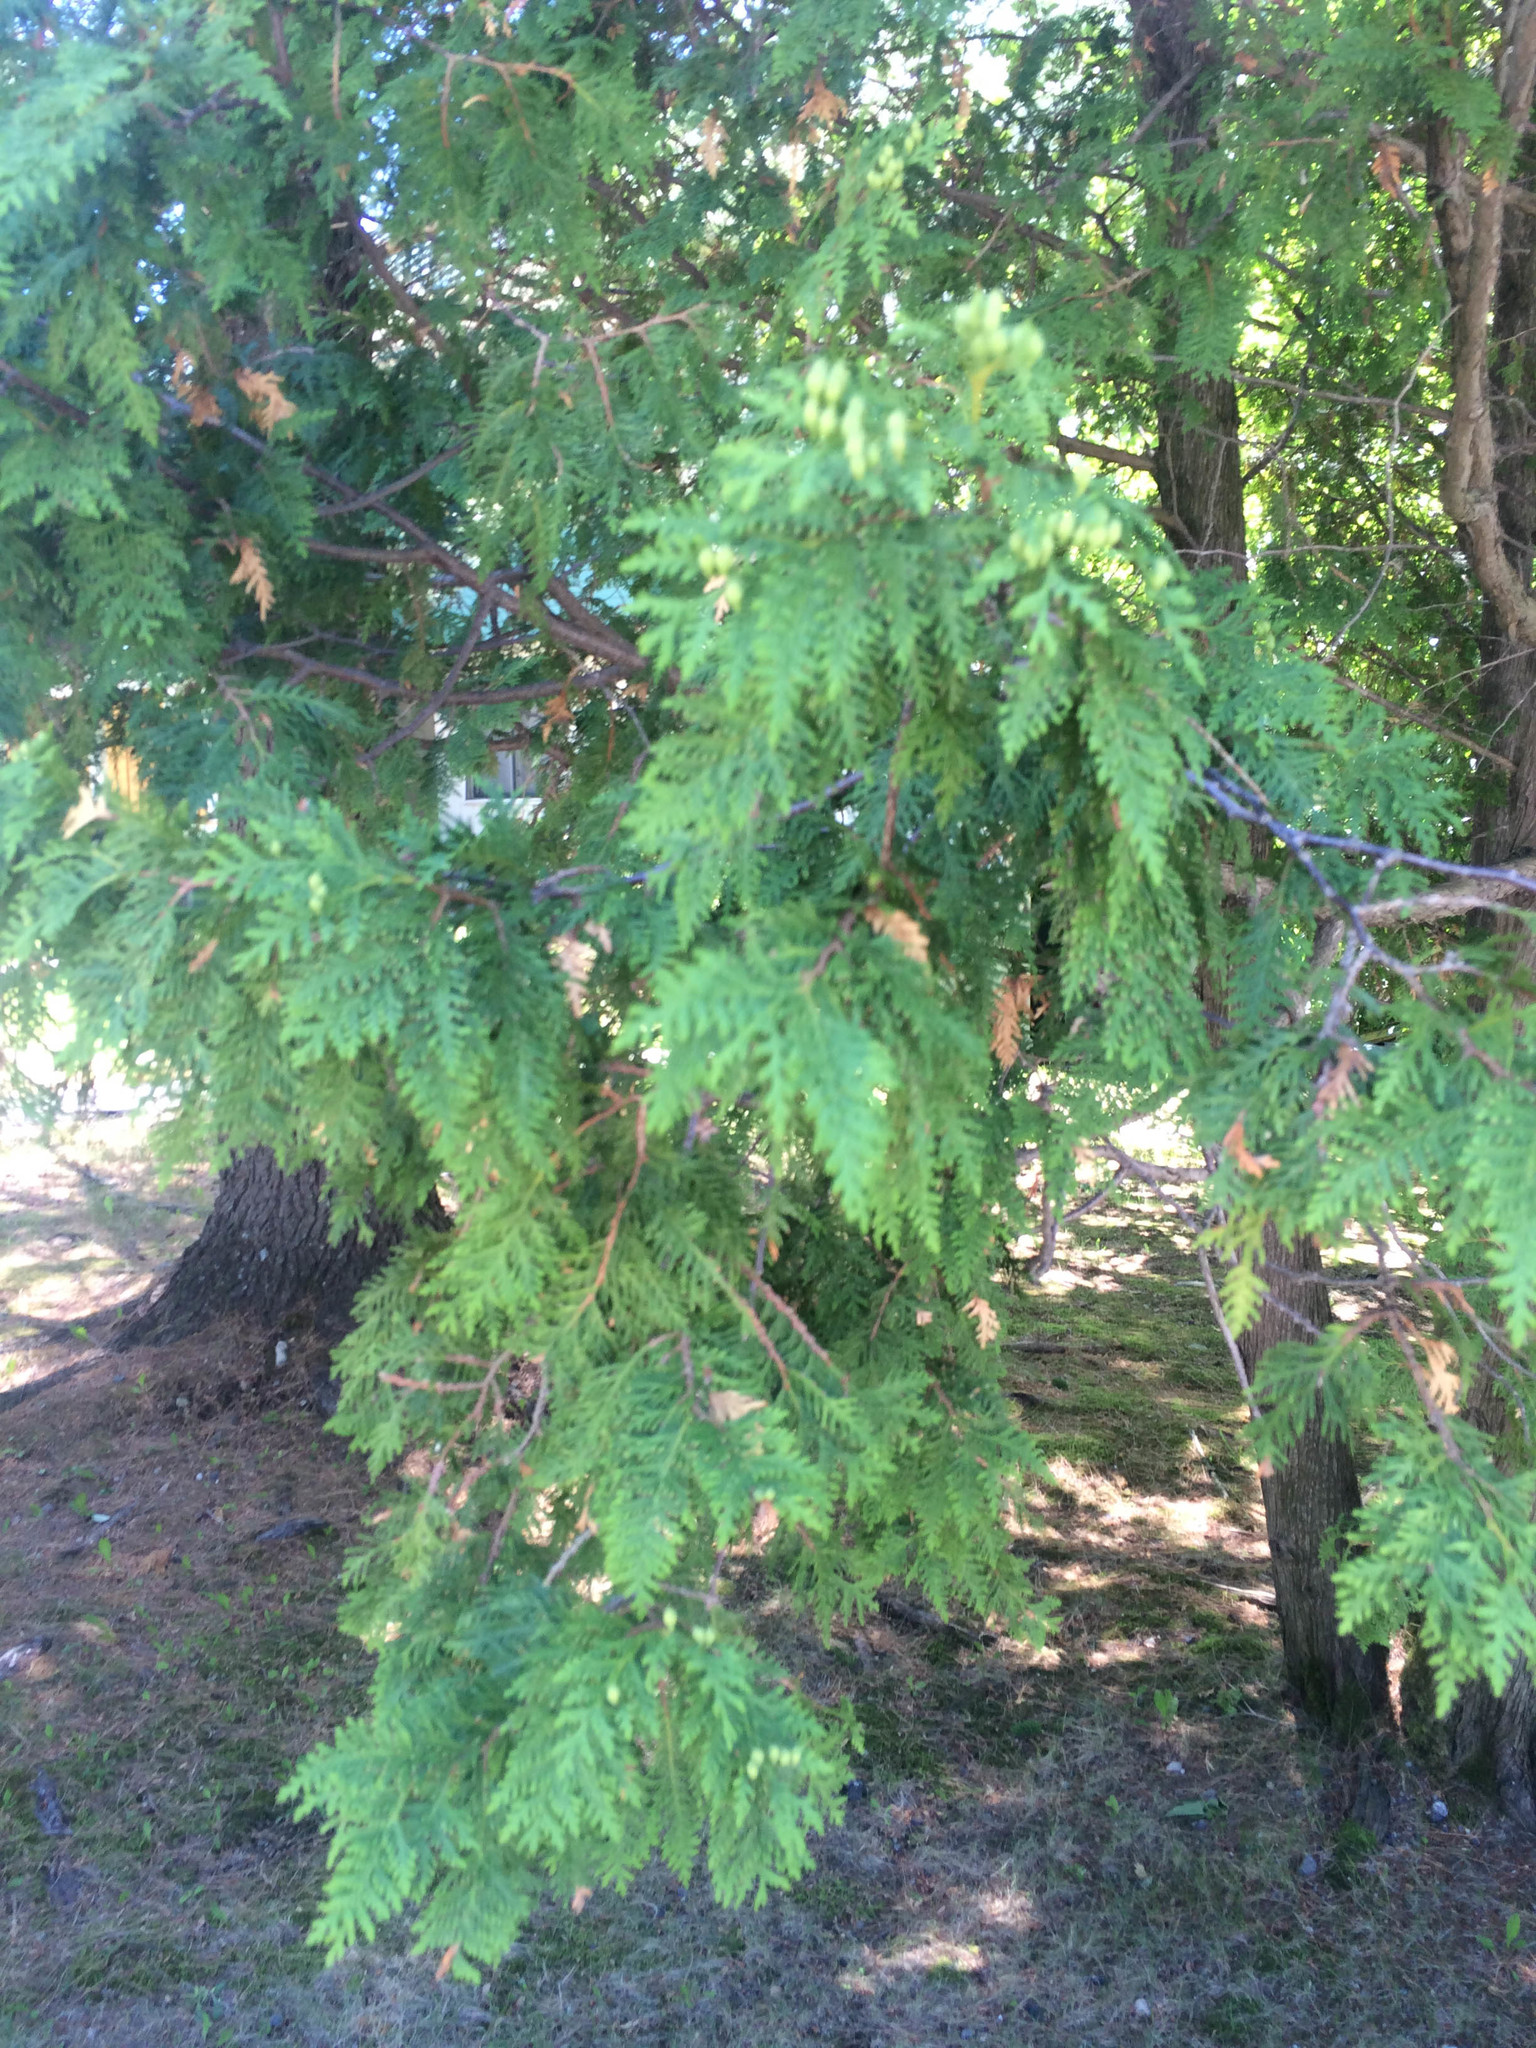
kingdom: Plantae
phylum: Tracheophyta
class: Pinopsida
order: Pinales
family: Cupressaceae
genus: Thuja
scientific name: Thuja occidentalis
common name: Northern white-cedar
